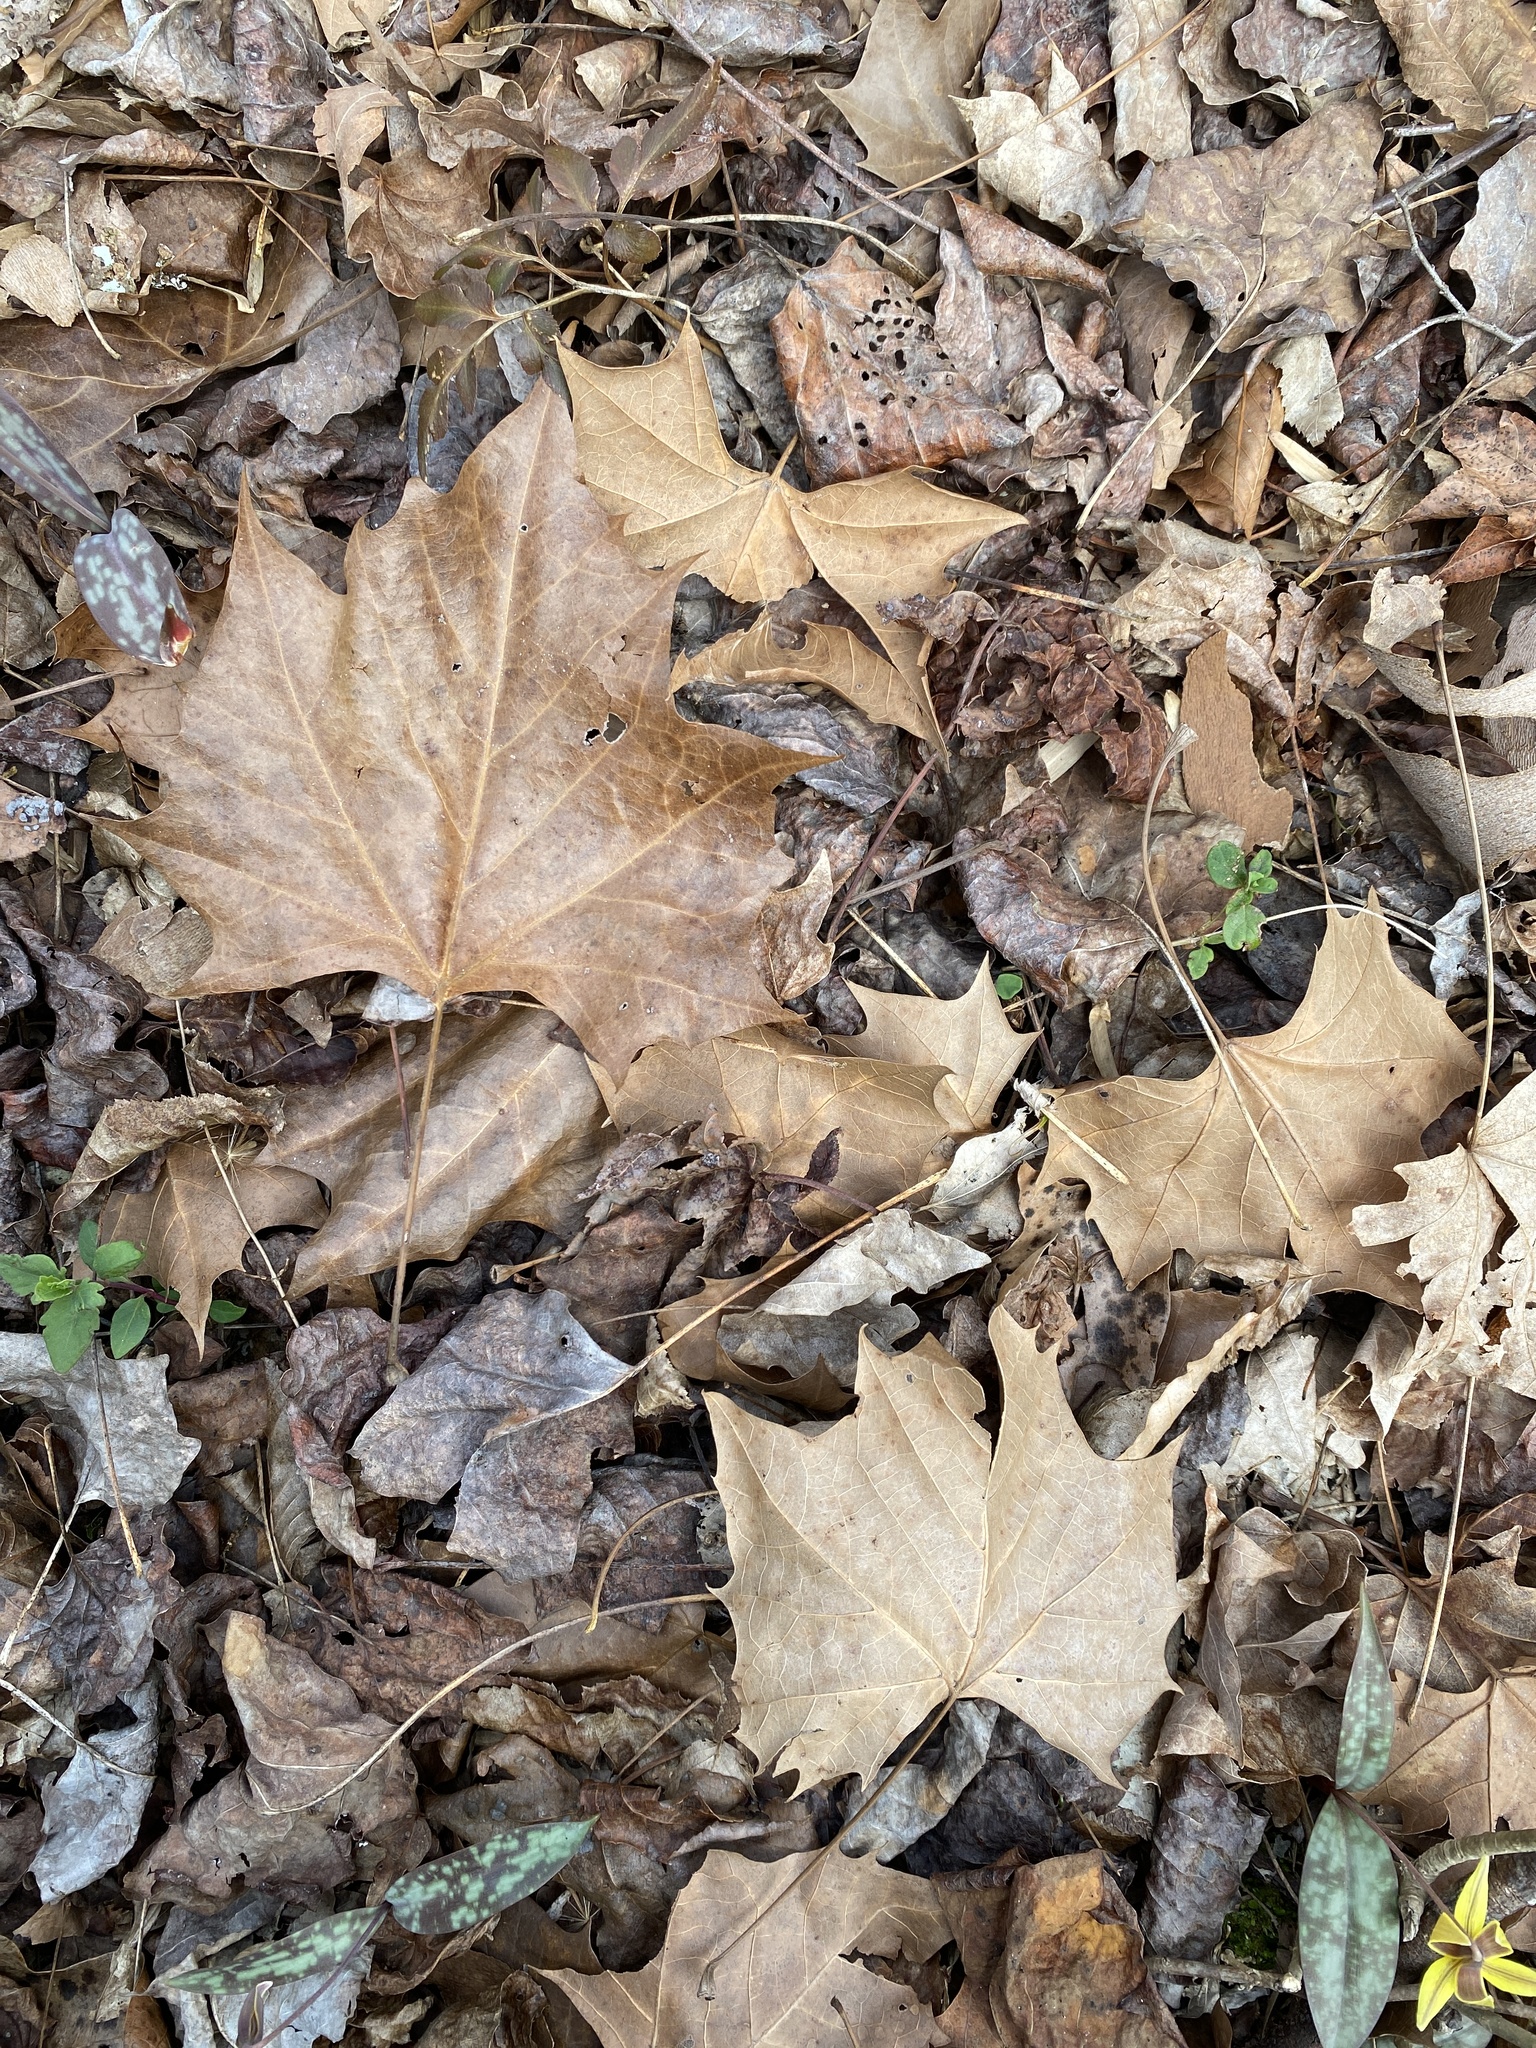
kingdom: Plantae
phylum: Tracheophyta
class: Magnoliopsida
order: Proteales
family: Platanaceae
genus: Platanus
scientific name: Platanus occidentalis
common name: American sycamore
